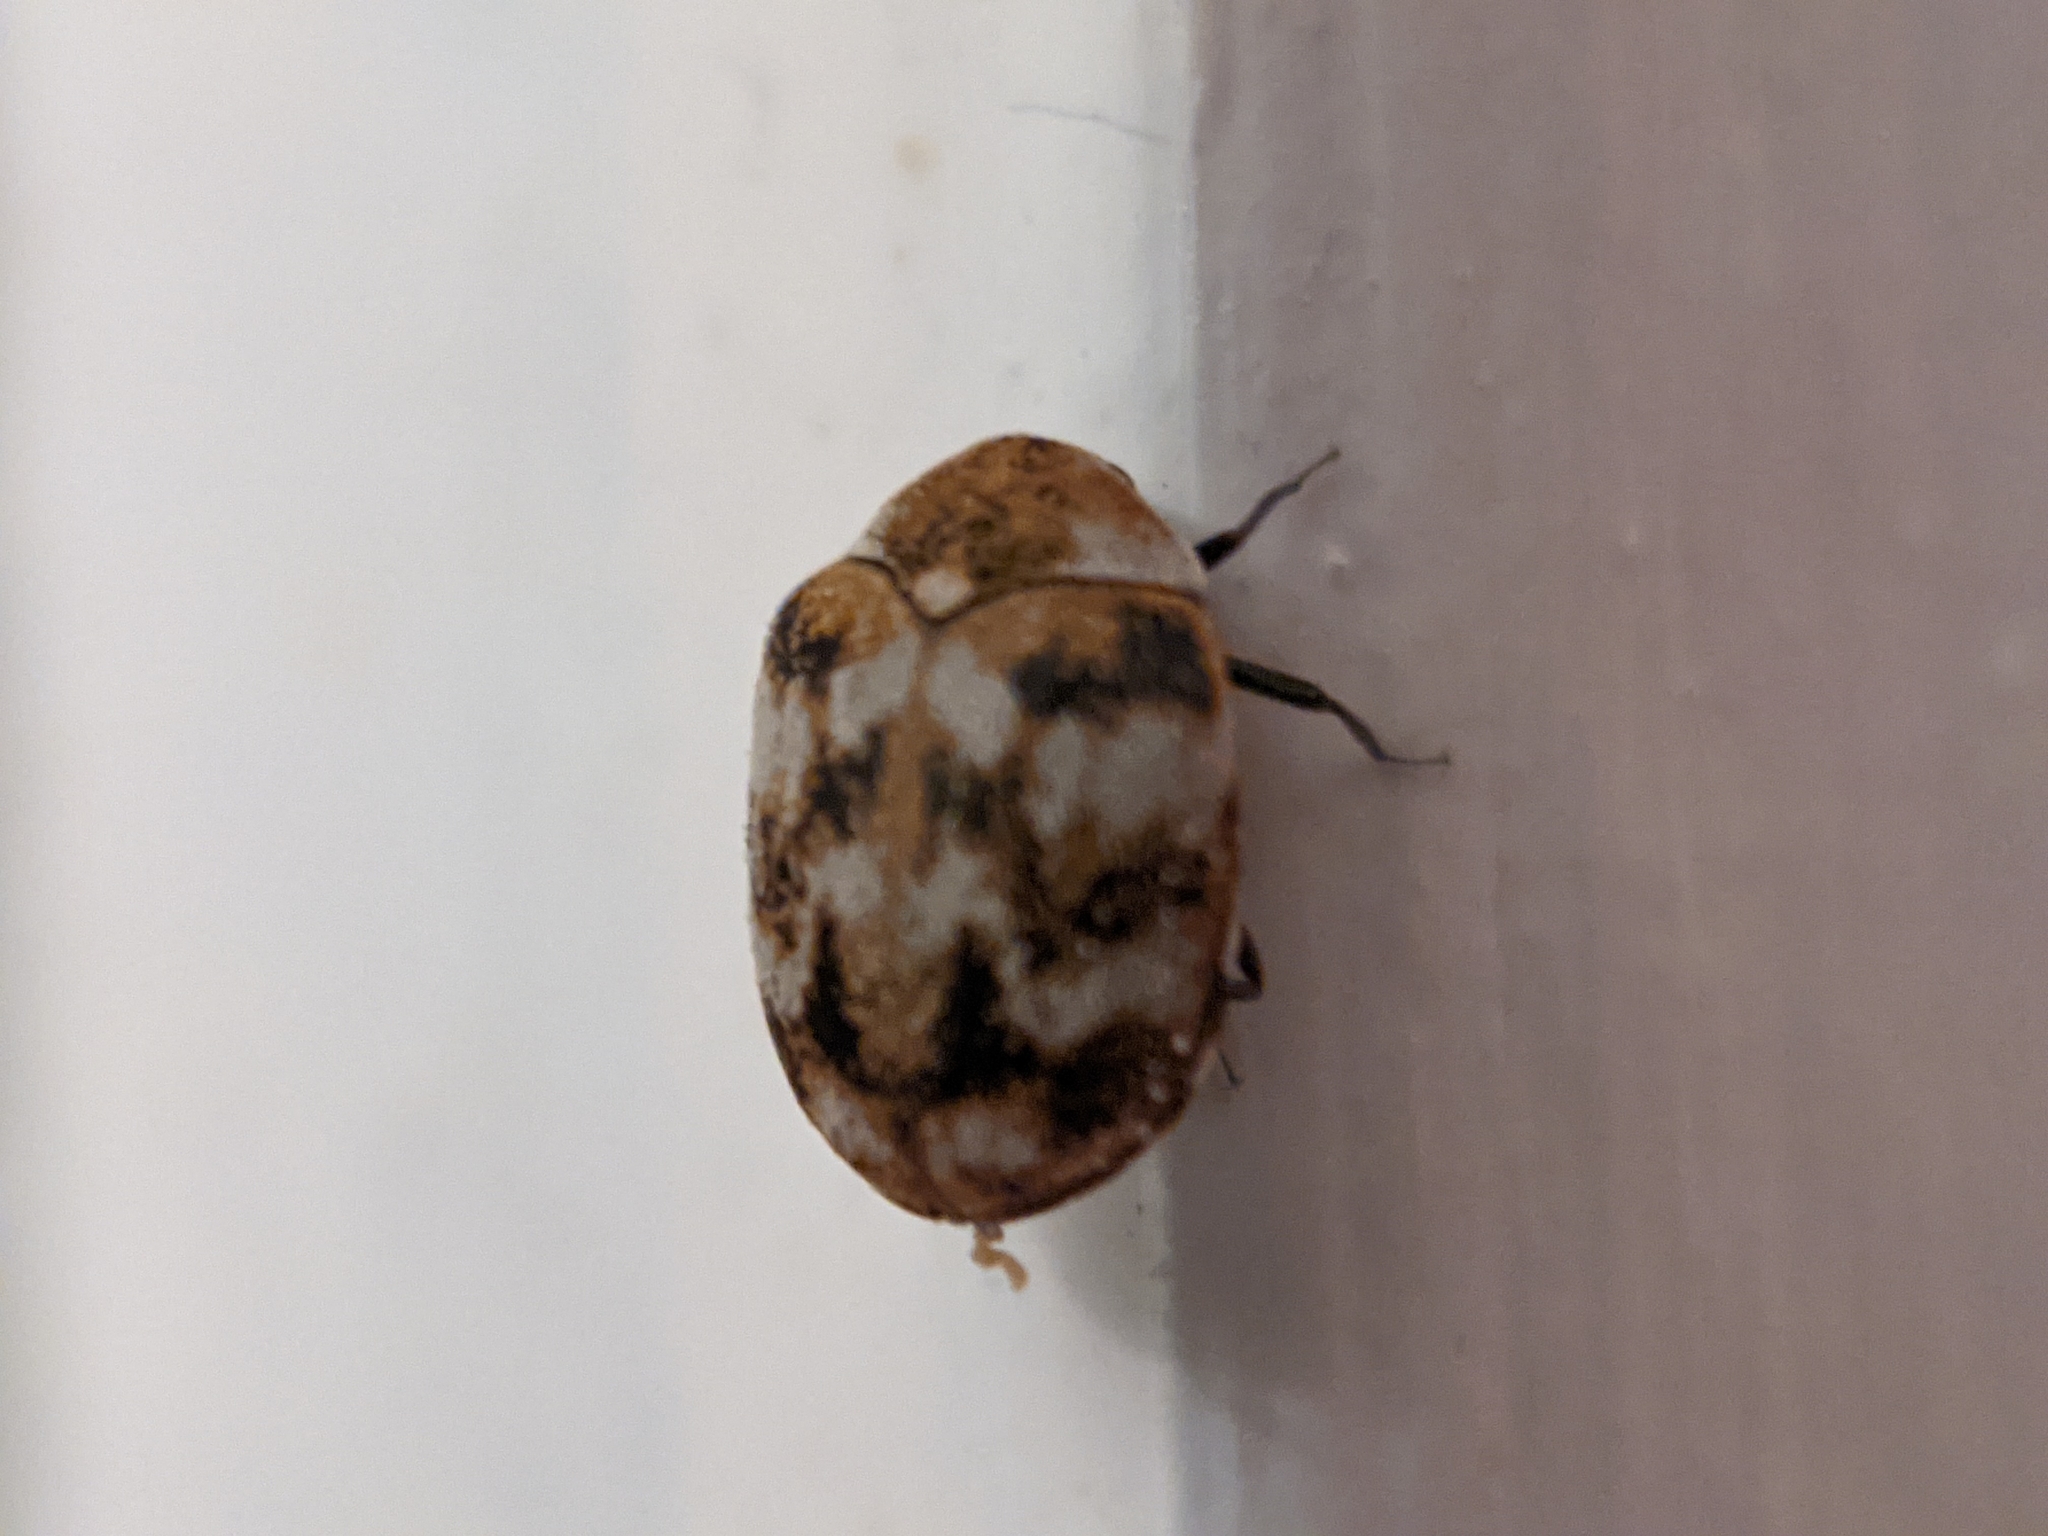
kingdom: Animalia
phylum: Arthropoda
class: Insecta
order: Coleoptera
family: Dermestidae
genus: Anthrenus
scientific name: Anthrenus verbasci
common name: Varied carpet beetle
